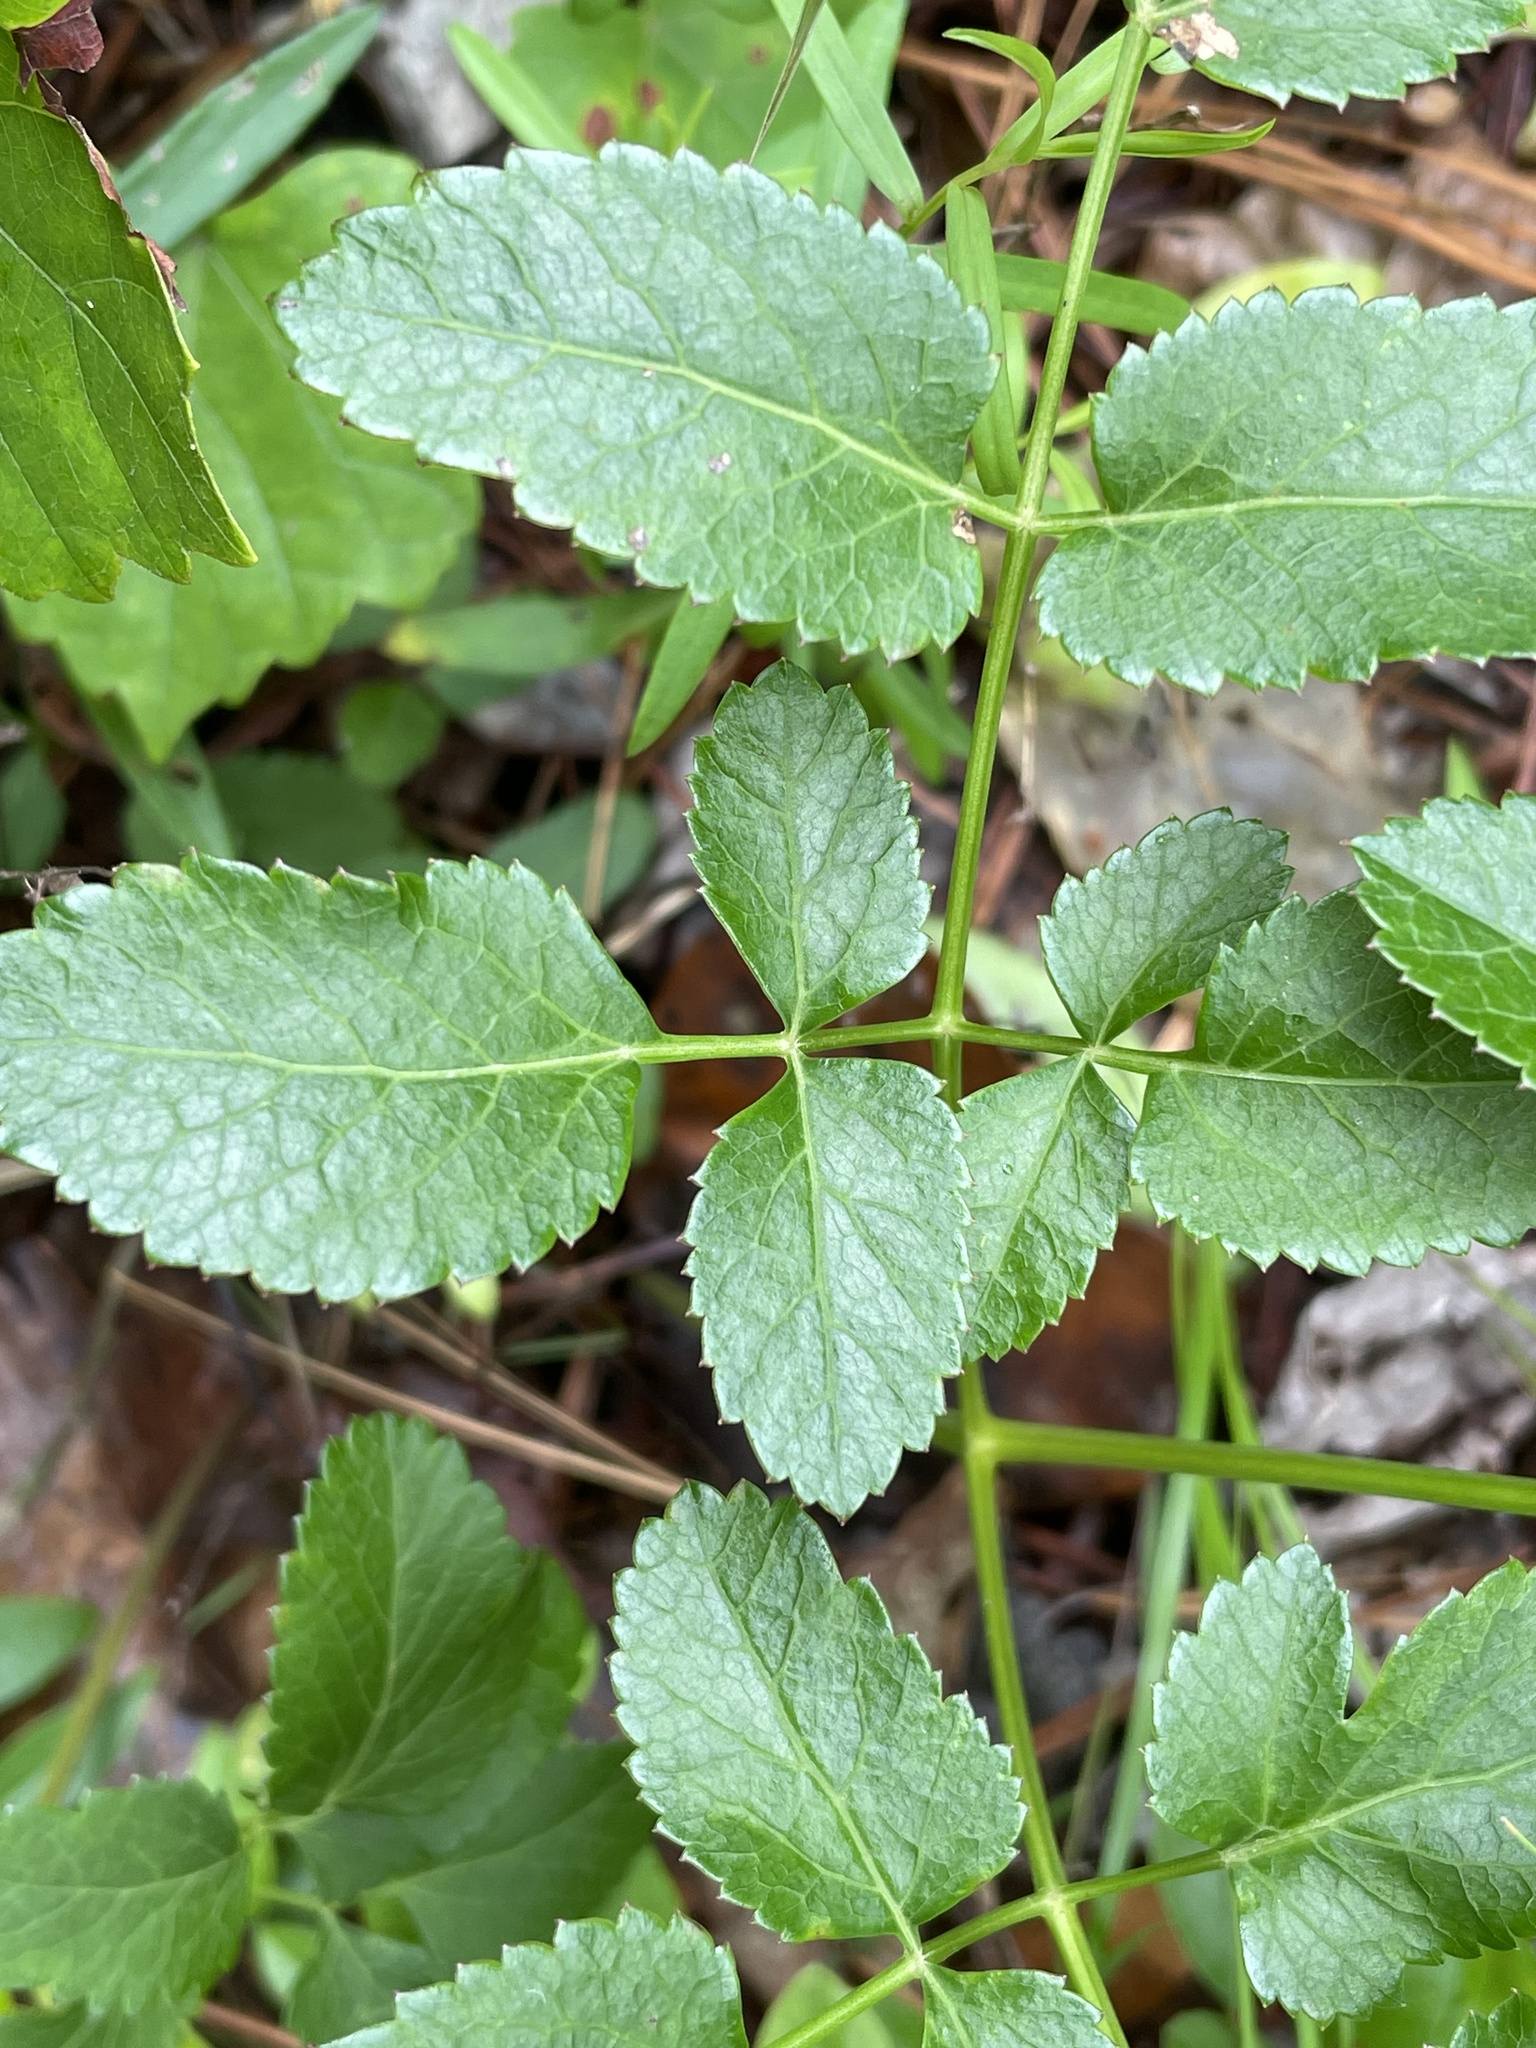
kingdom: Plantae
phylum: Tracheophyta
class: Magnoliopsida
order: Apiales
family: Apiaceae
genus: Angelica
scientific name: Angelica venenosa
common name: Hairy angelica
